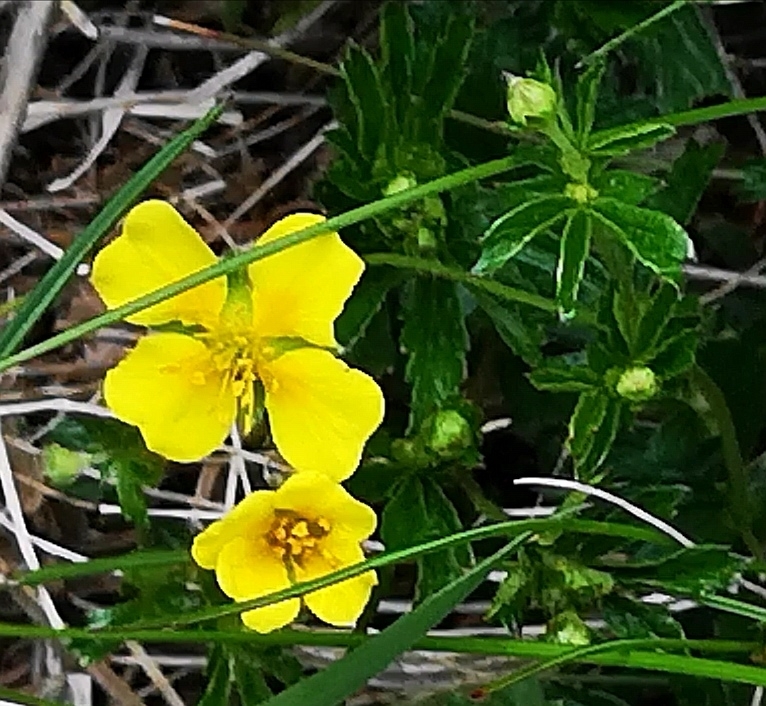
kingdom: Plantae
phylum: Tracheophyta
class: Magnoliopsida
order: Rosales
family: Rosaceae
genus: Potentilla
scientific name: Potentilla erecta
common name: Tormentil
